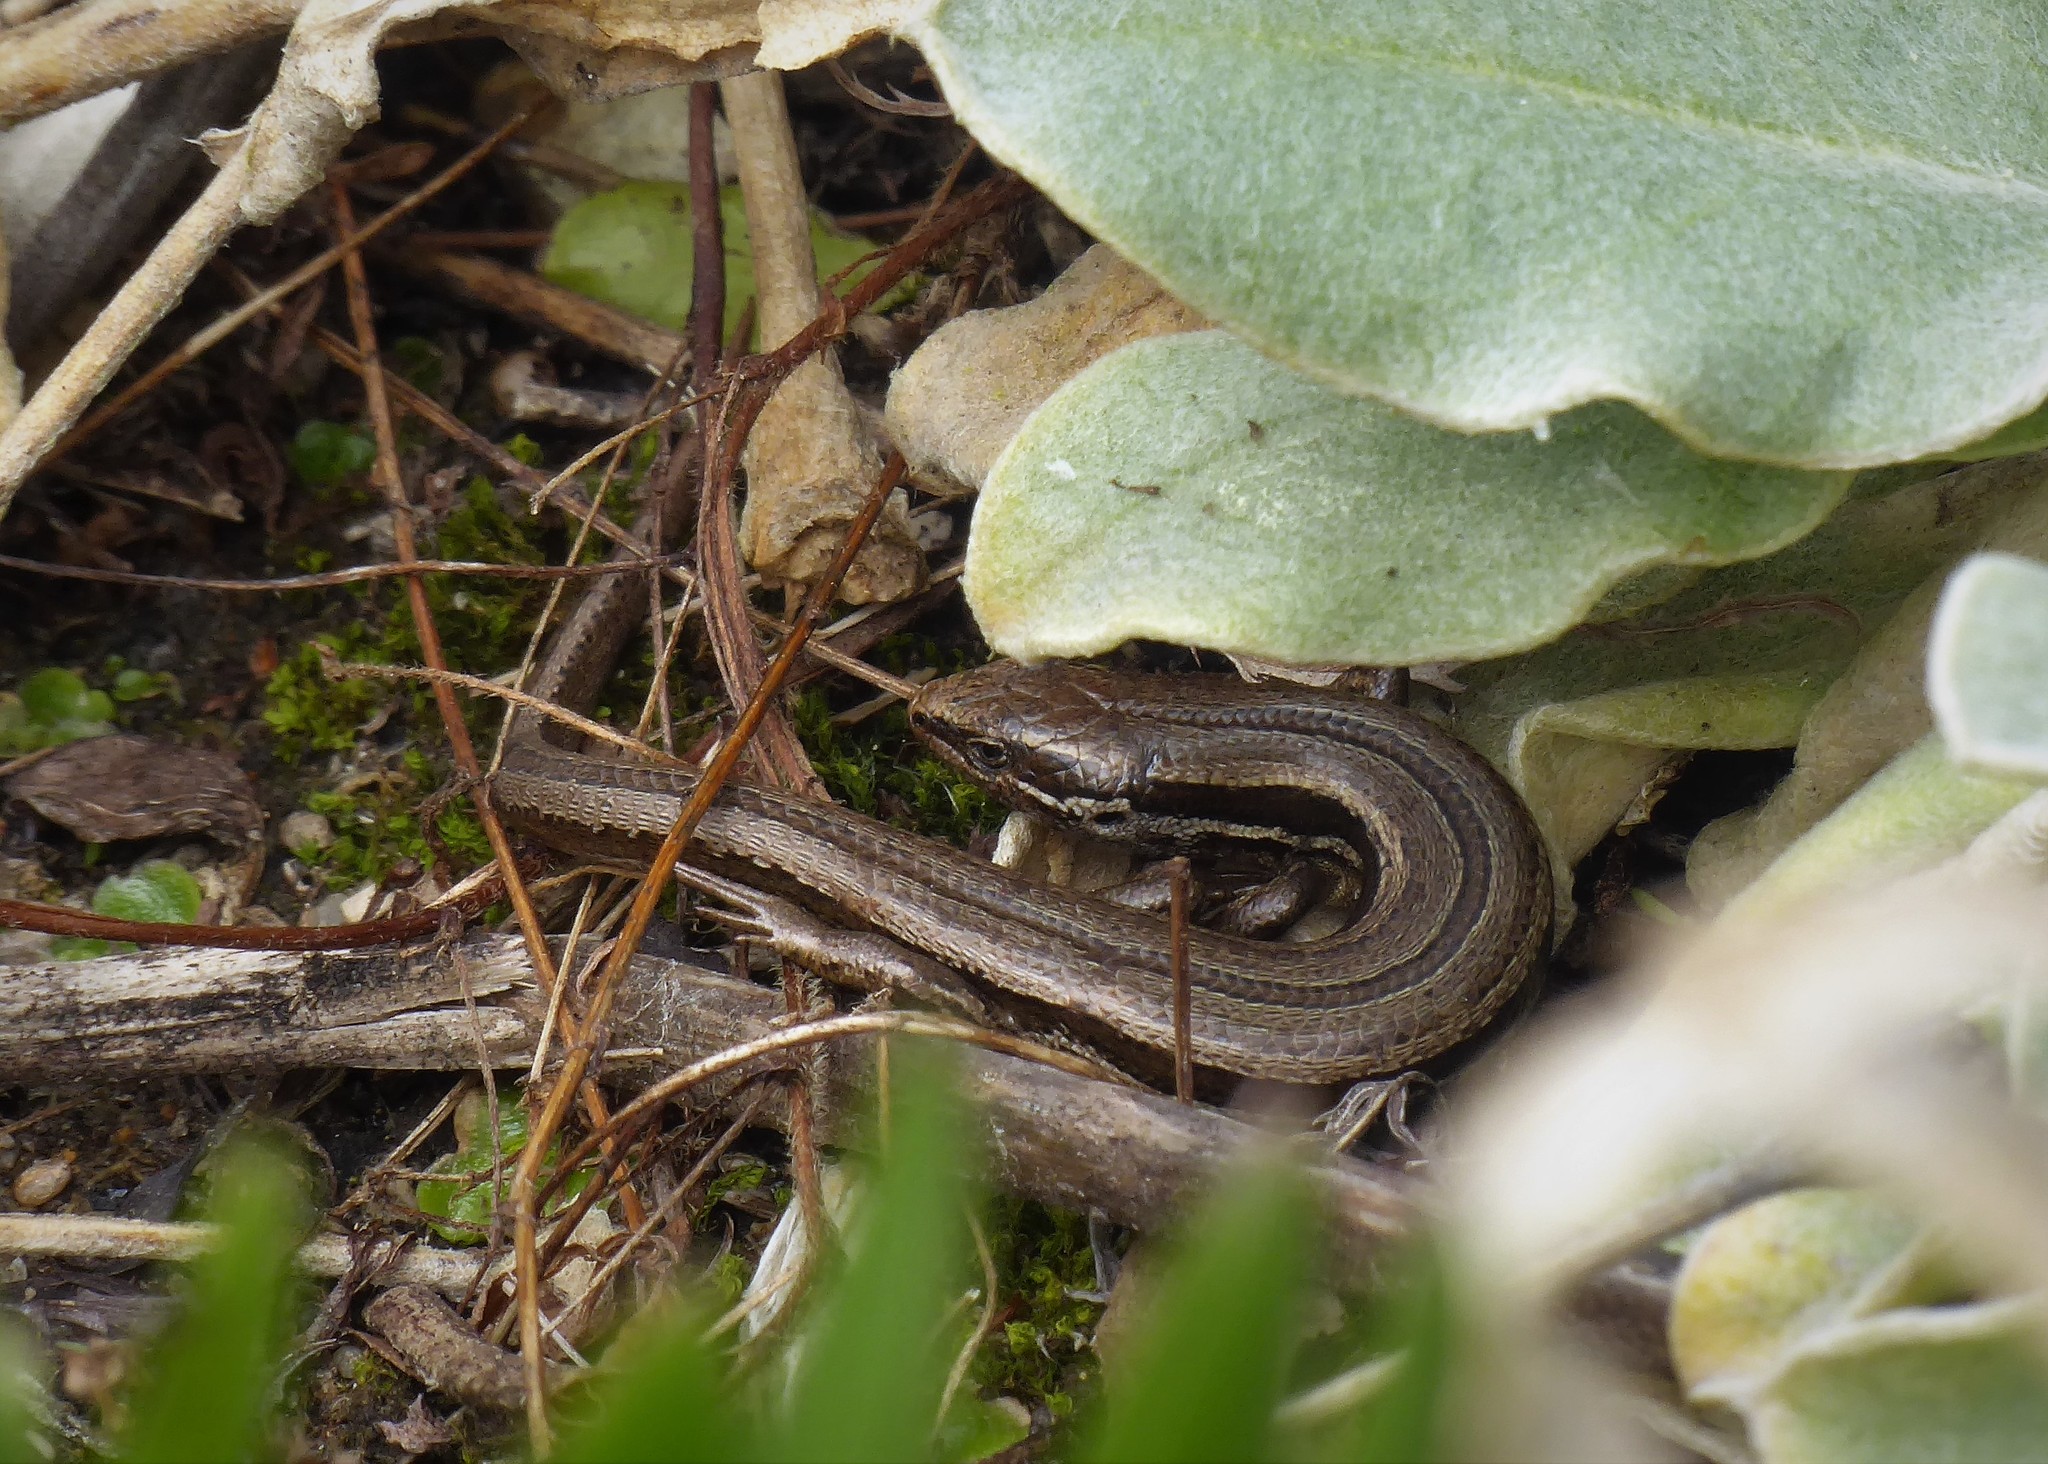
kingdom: Animalia
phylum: Chordata
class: Squamata
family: Scincidae
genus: Oligosoma
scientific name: Oligosoma polychroma
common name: Common new zealand skink
